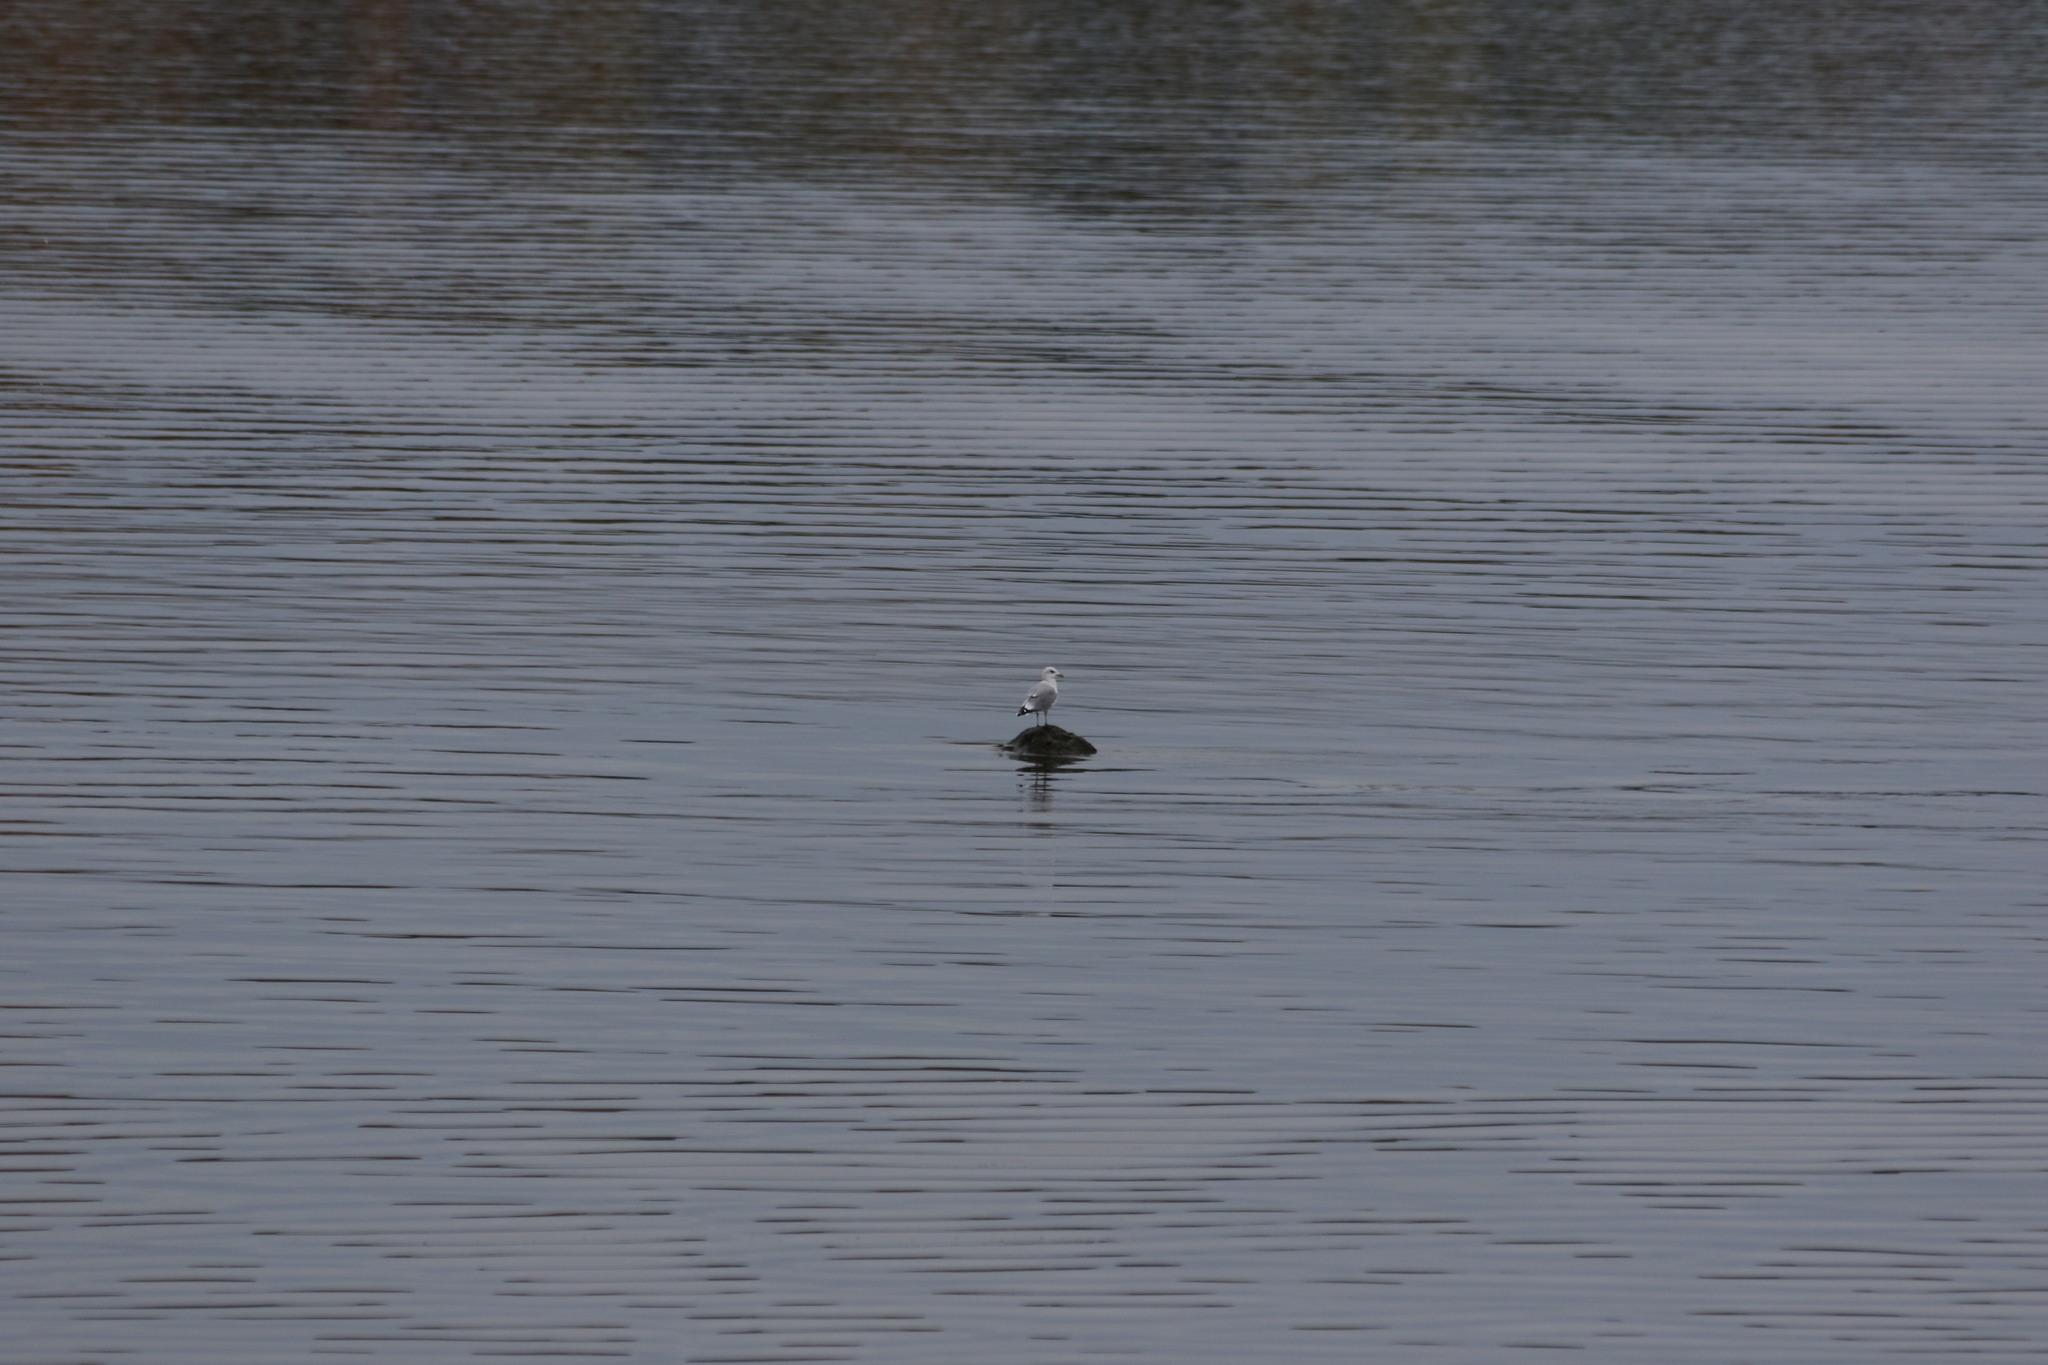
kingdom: Animalia
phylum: Chordata
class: Aves
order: Charadriiformes
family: Laridae
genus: Larus
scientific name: Larus canus
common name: Mew gull
